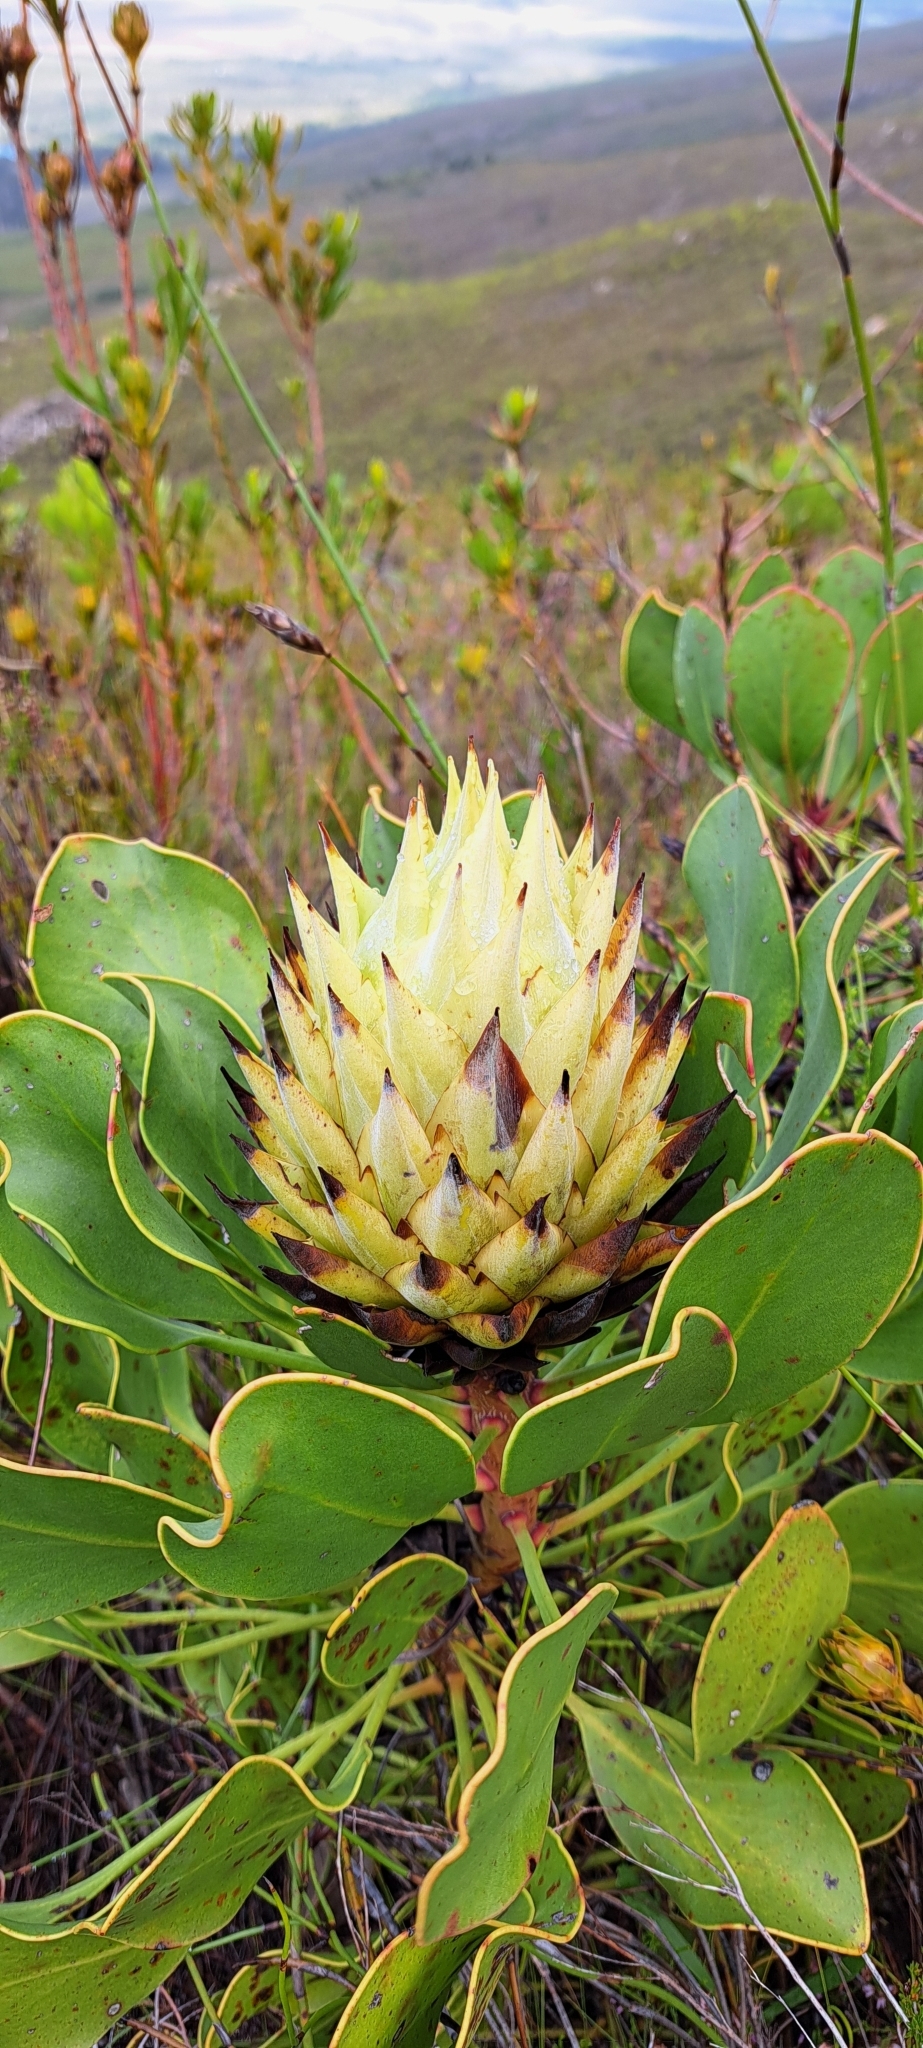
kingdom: Plantae
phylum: Tracheophyta
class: Magnoliopsida
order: Proteales
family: Proteaceae
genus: Protea
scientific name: Protea cynaroides
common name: King protea
